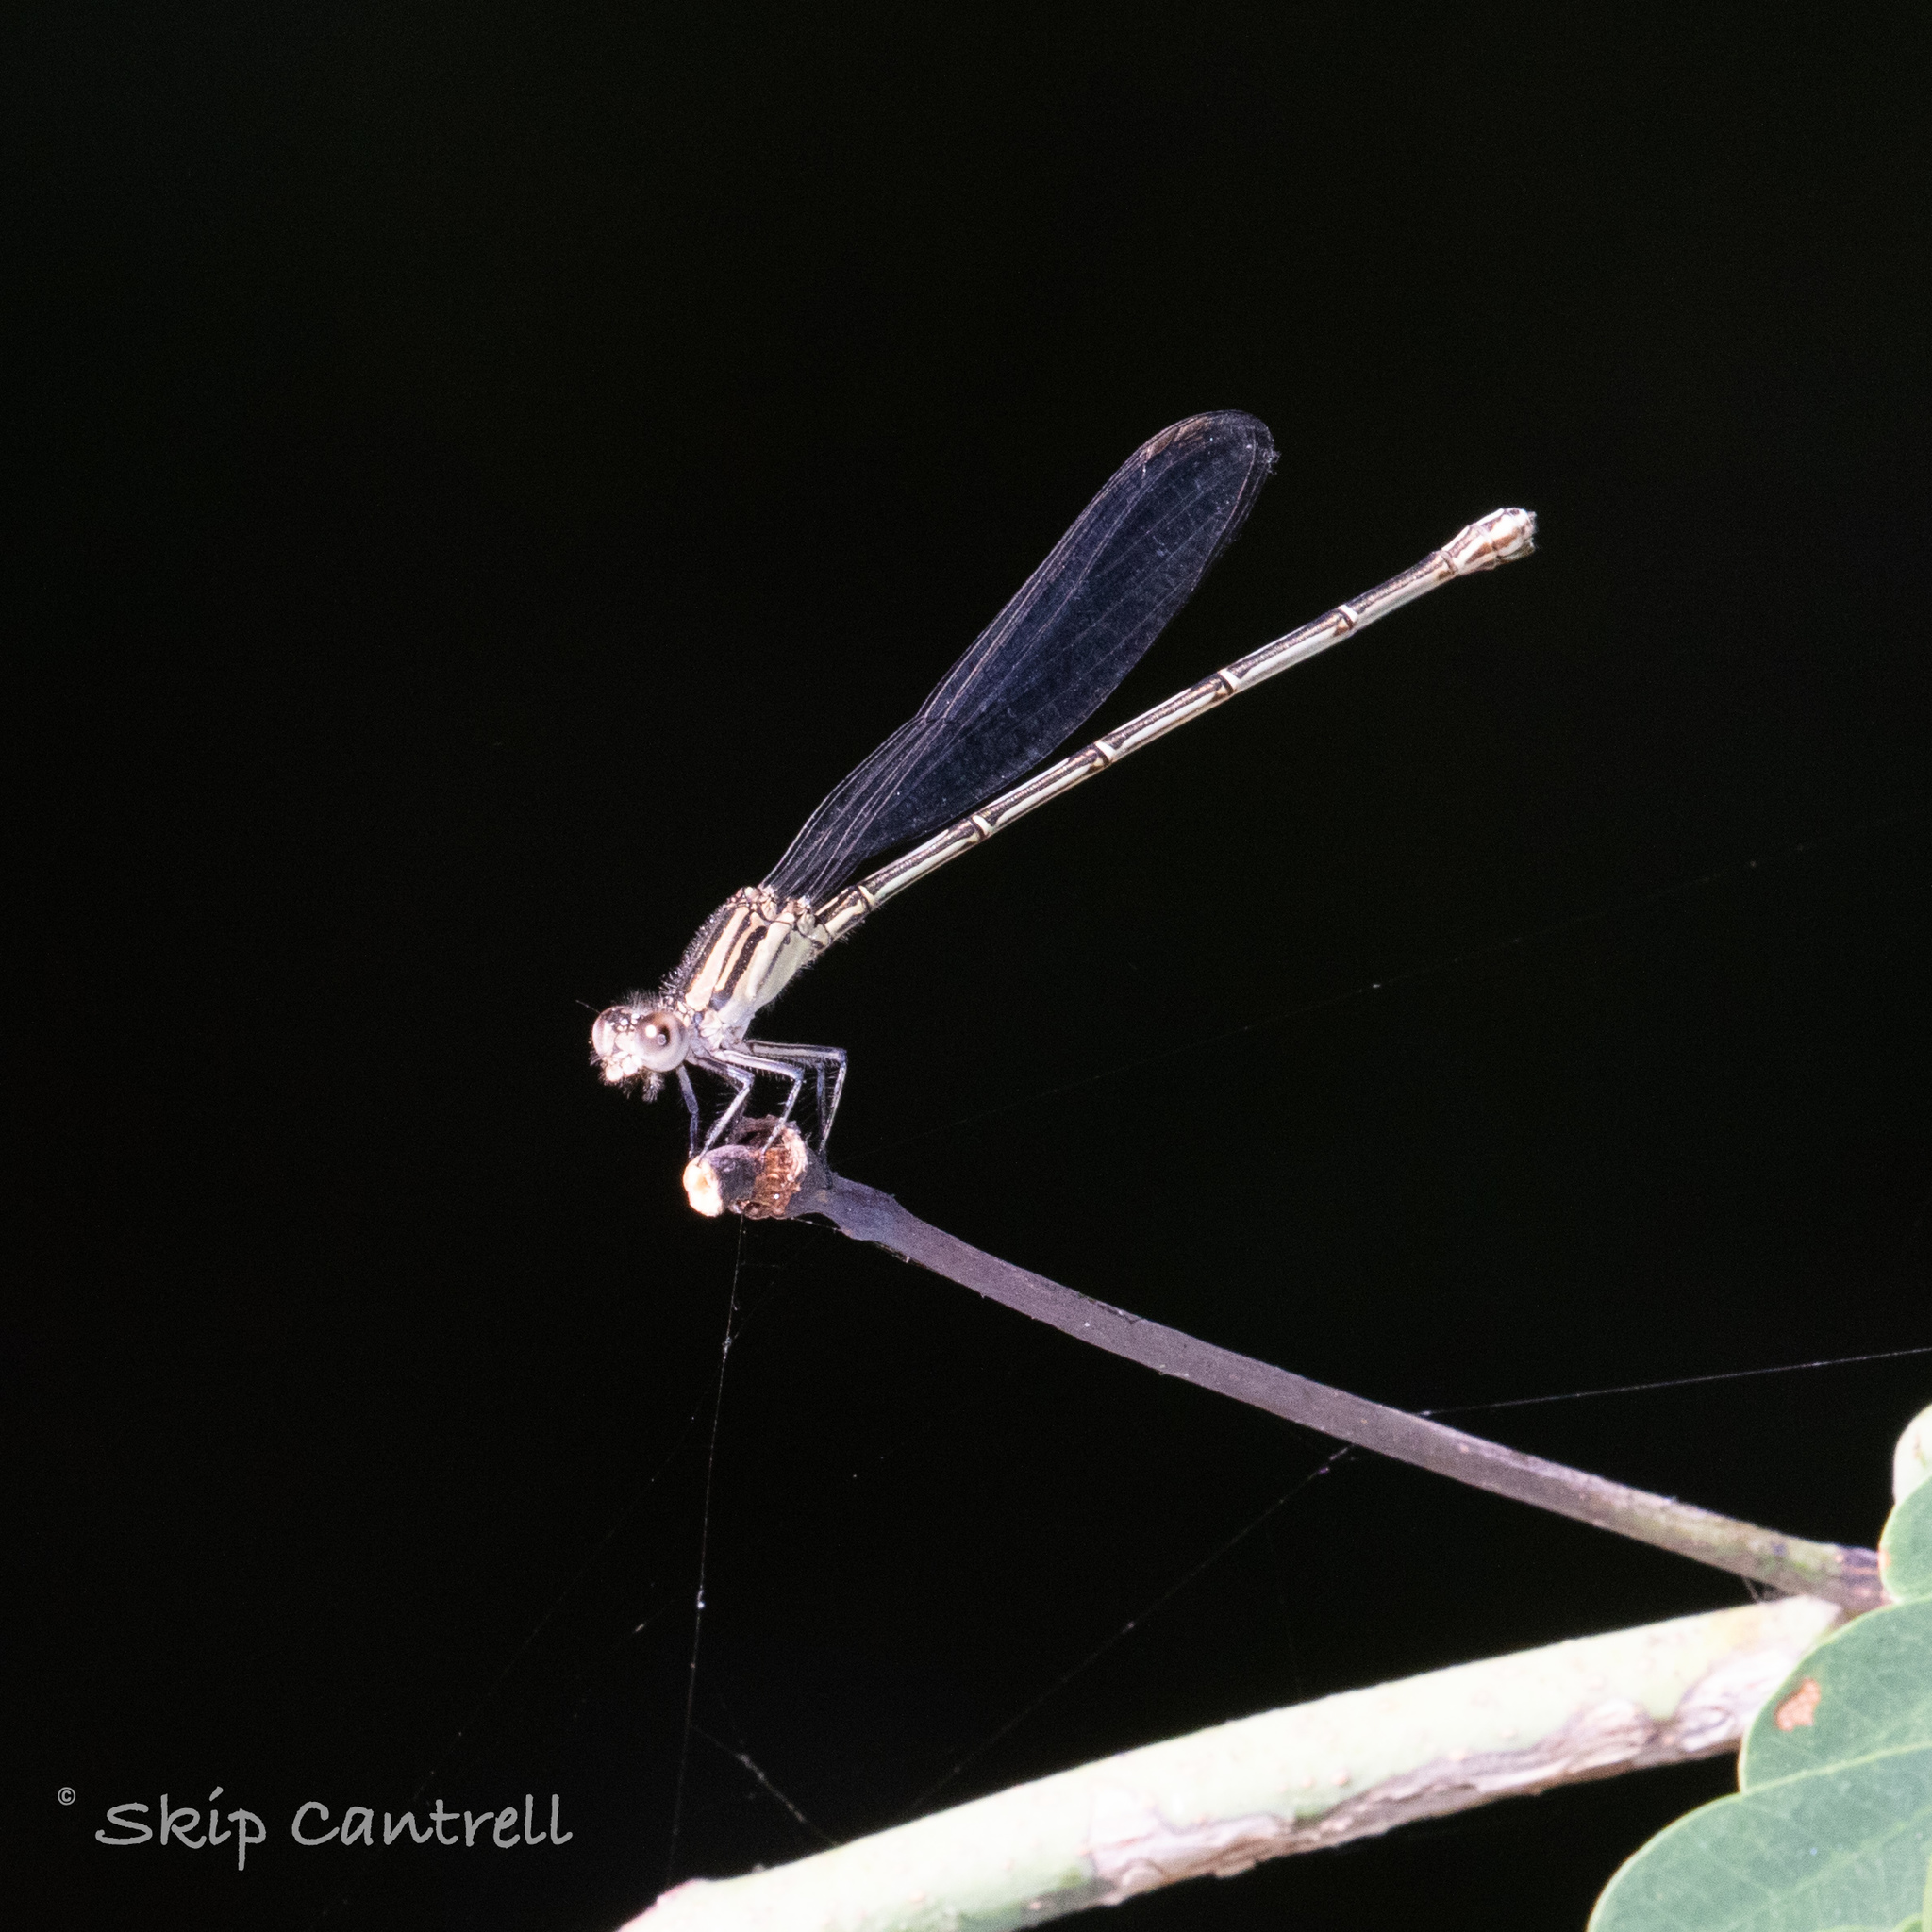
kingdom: Animalia
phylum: Arthropoda
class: Insecta
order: Odonata
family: Coenagrionidae
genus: Argia
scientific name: Argia translata
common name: Dusky dancer
